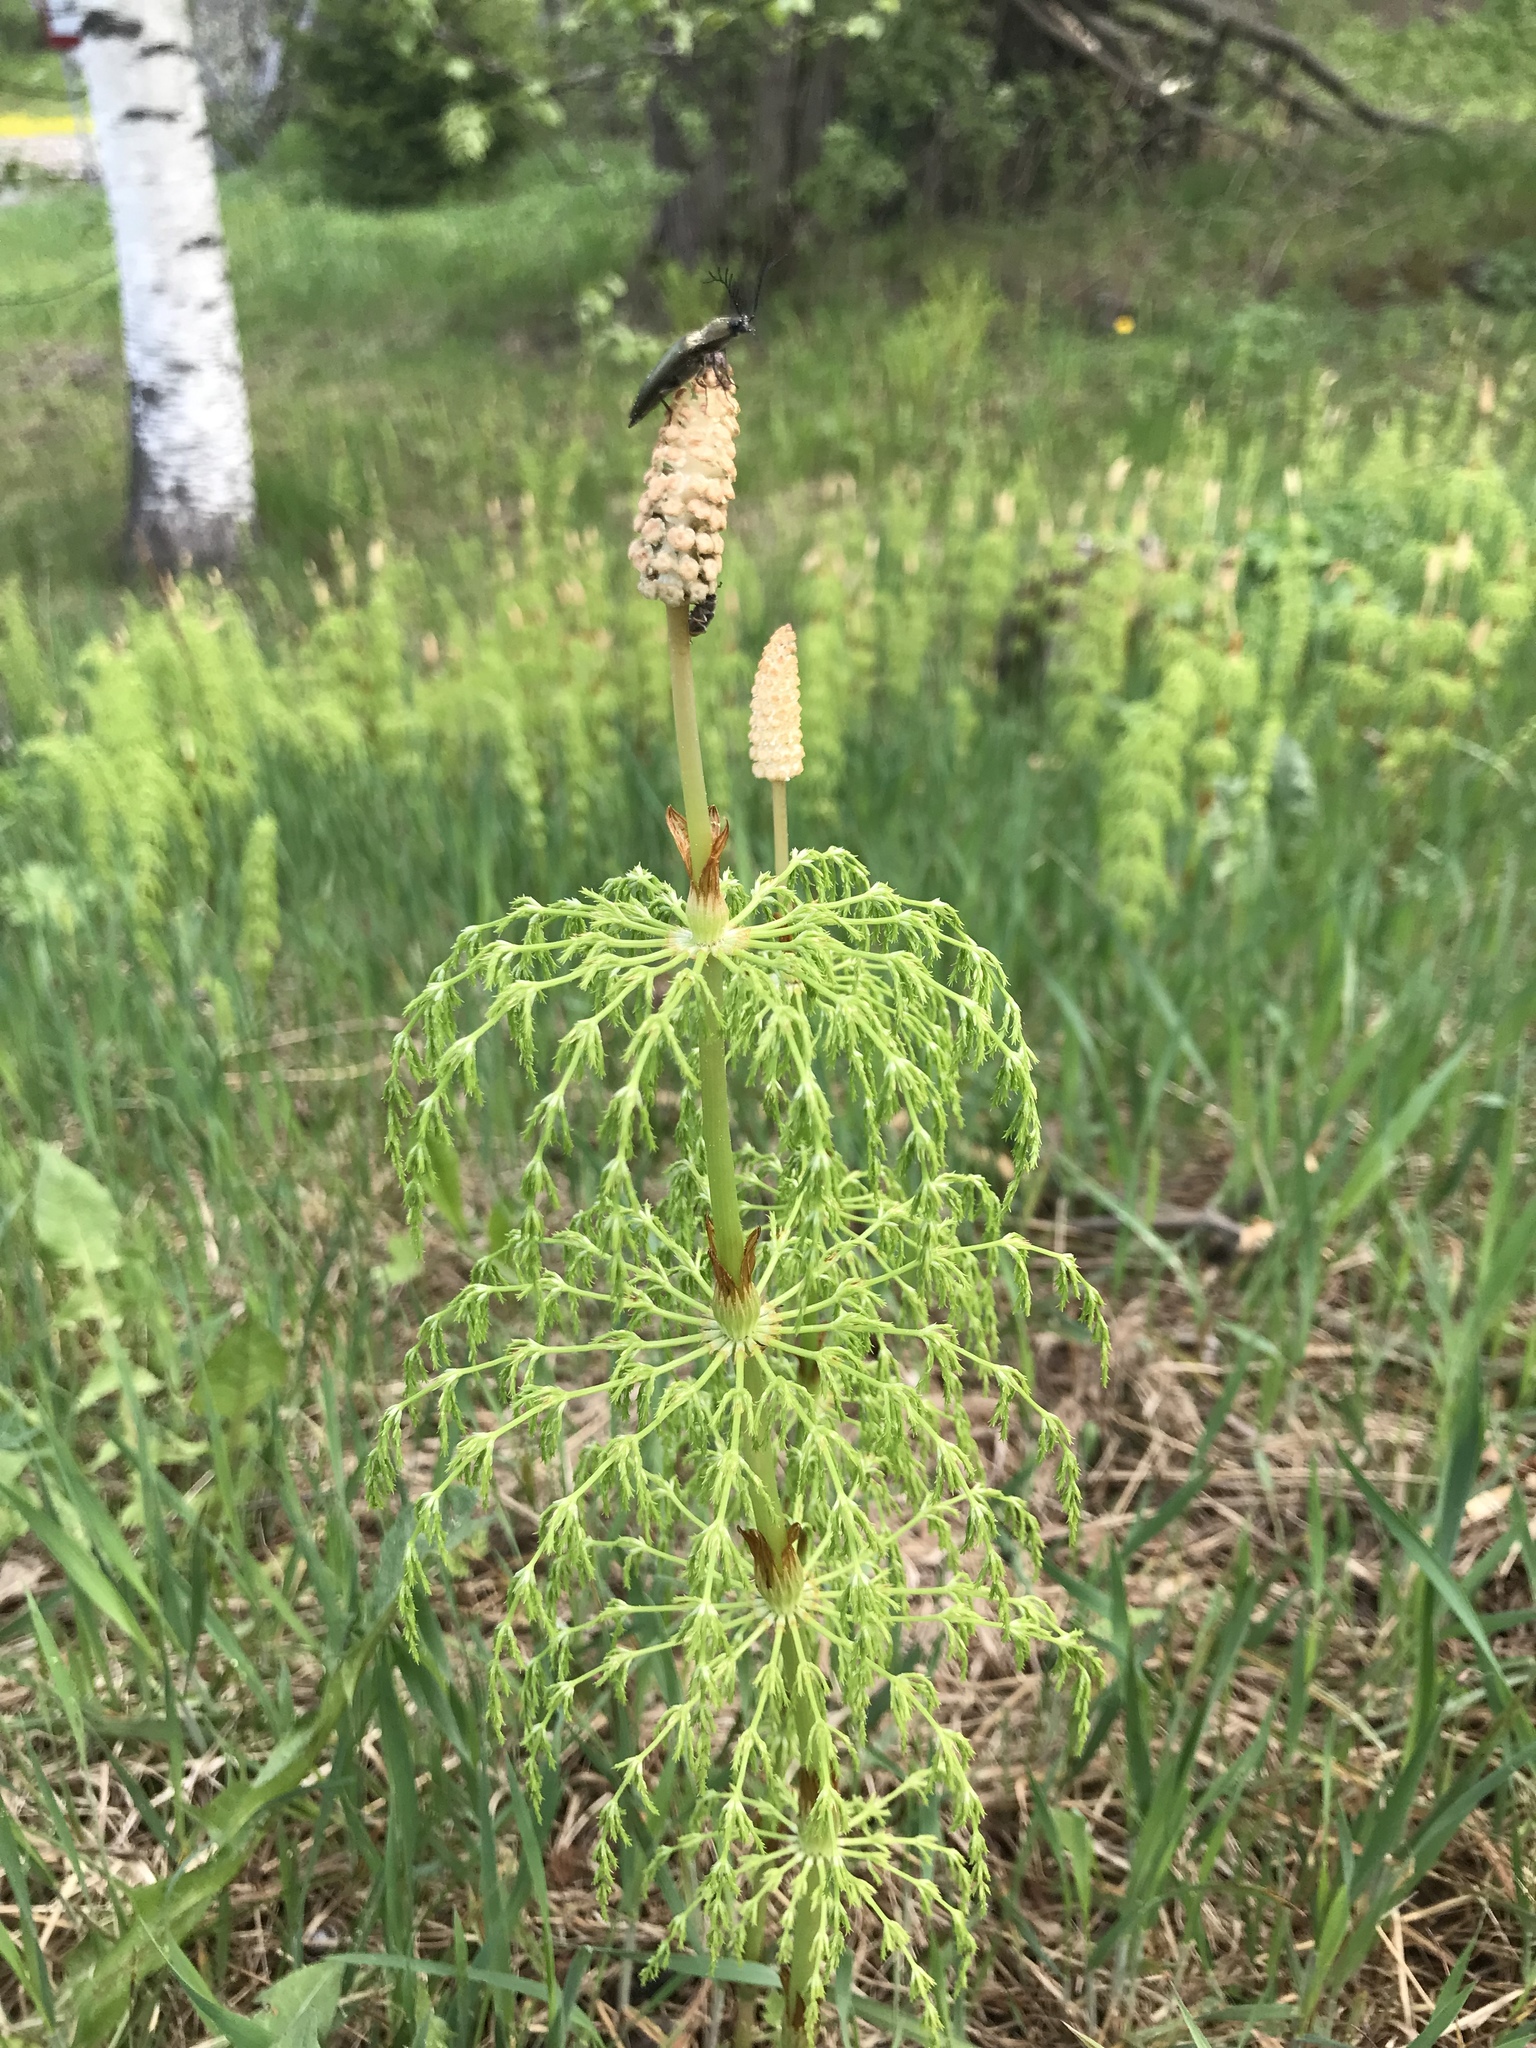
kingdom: Plantae
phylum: Tracheophyta
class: Polypodiopsida
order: Equisetales
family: Equisetaceae
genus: Equisetum
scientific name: Equisetum sylvaticum
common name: Wood horsetail
